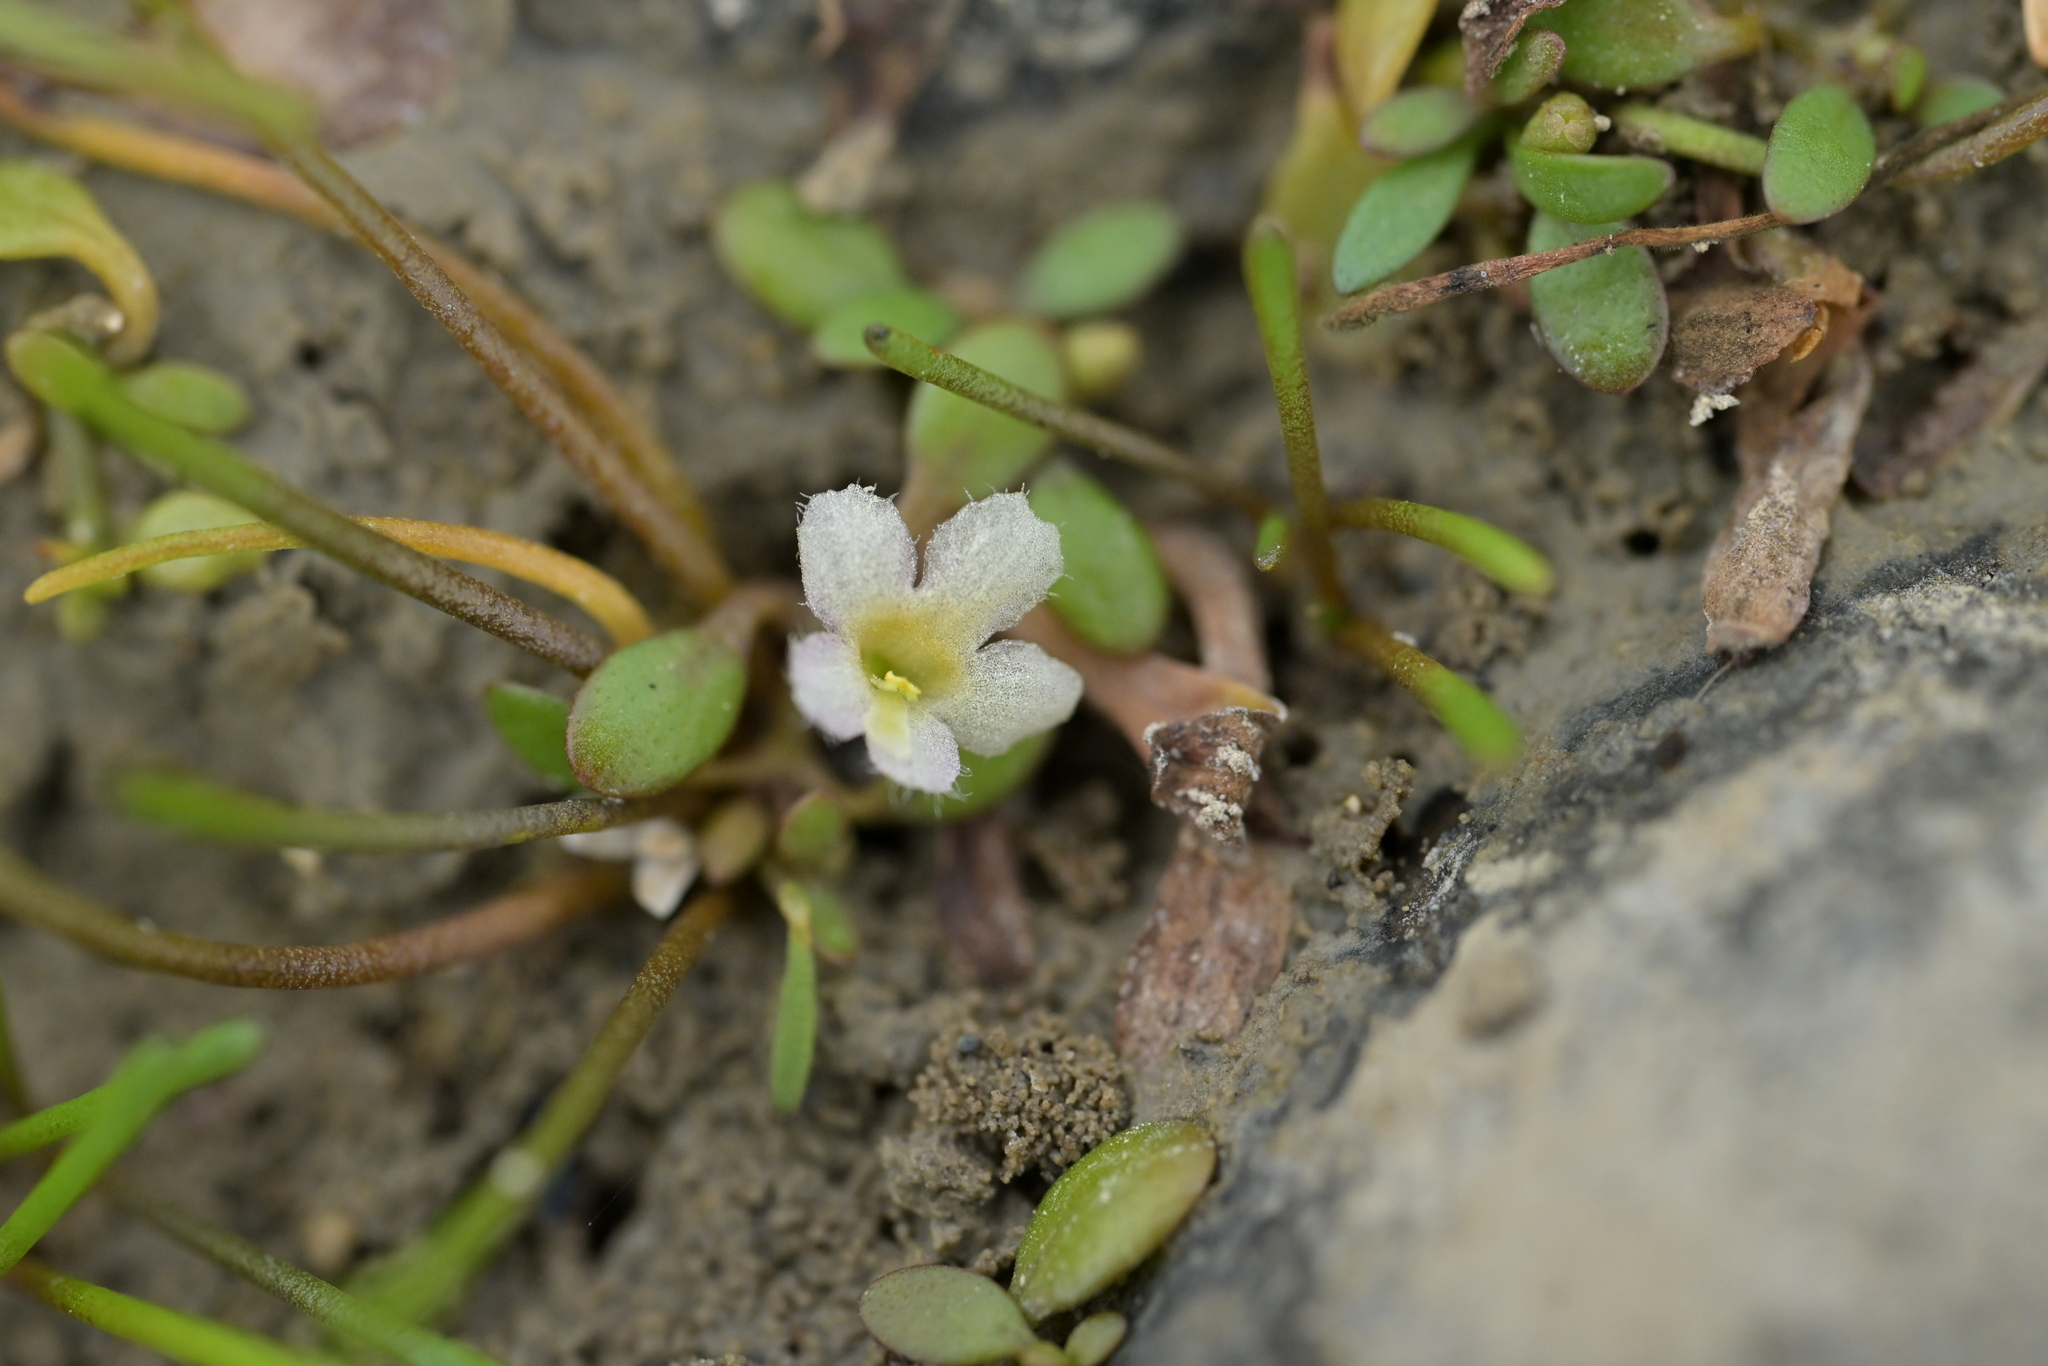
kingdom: Plantae
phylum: Tracheophyta
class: Magnoliopsida
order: Lamiales
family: Phrymaceae
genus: Glossostigma
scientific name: Glossostigma elatinoides
